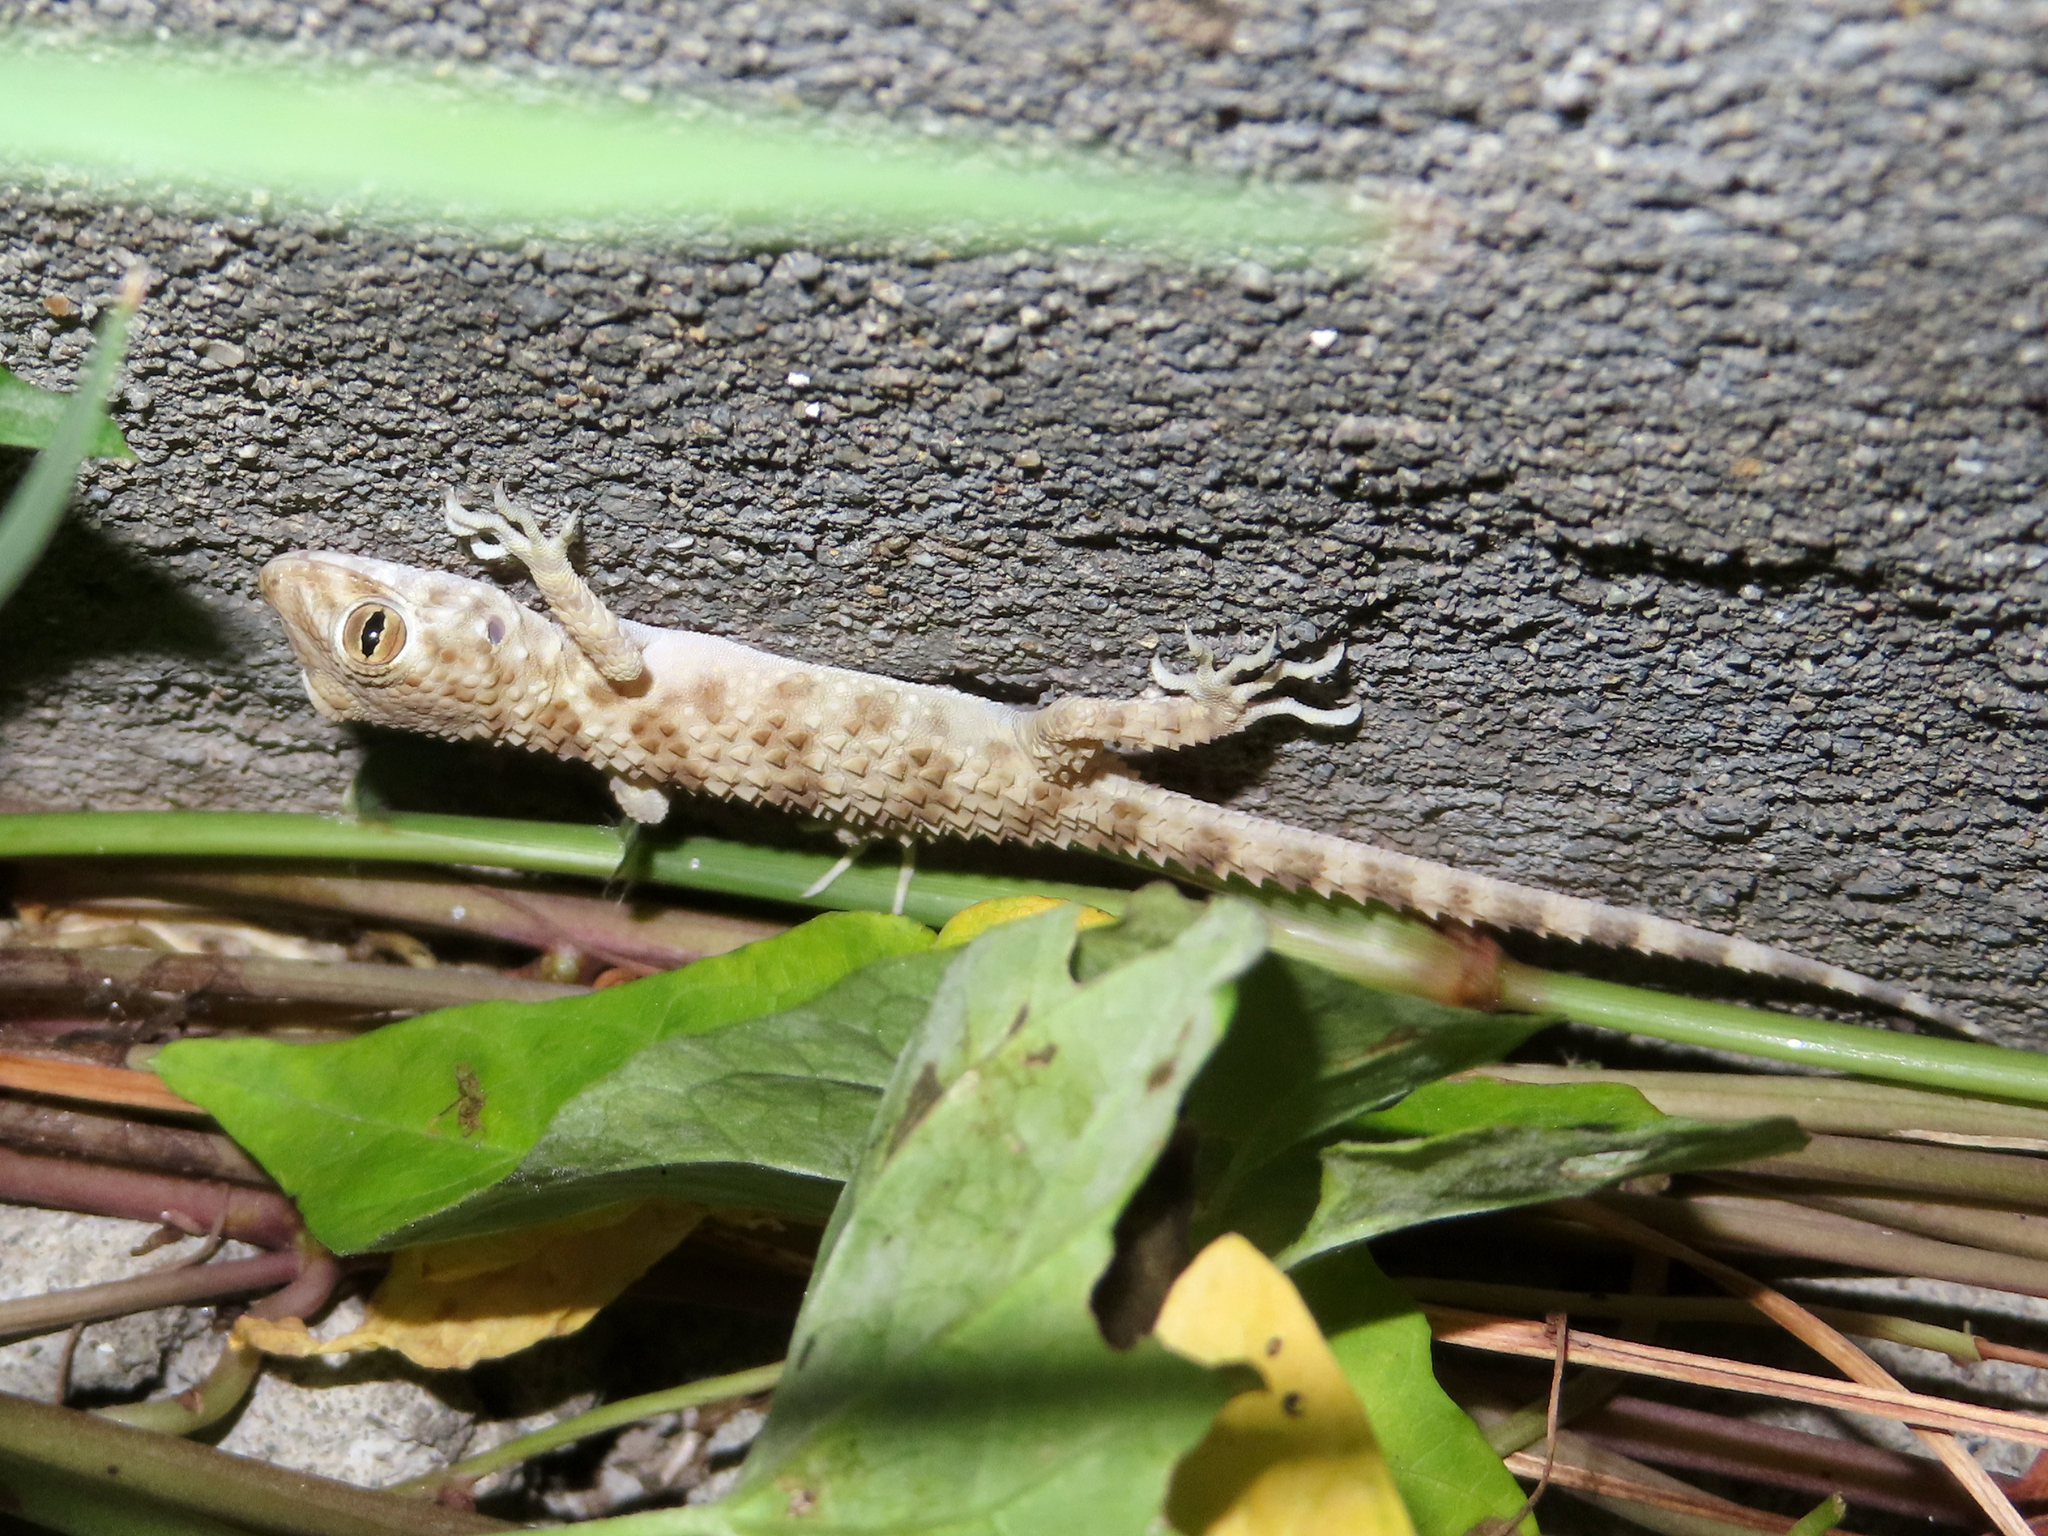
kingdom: Animalia
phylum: Chordata
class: Squamata
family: Gekkonidae
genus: Tenuidactylus
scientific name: Tenuidactylus caspius
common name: Caspian bent-toed gecko
